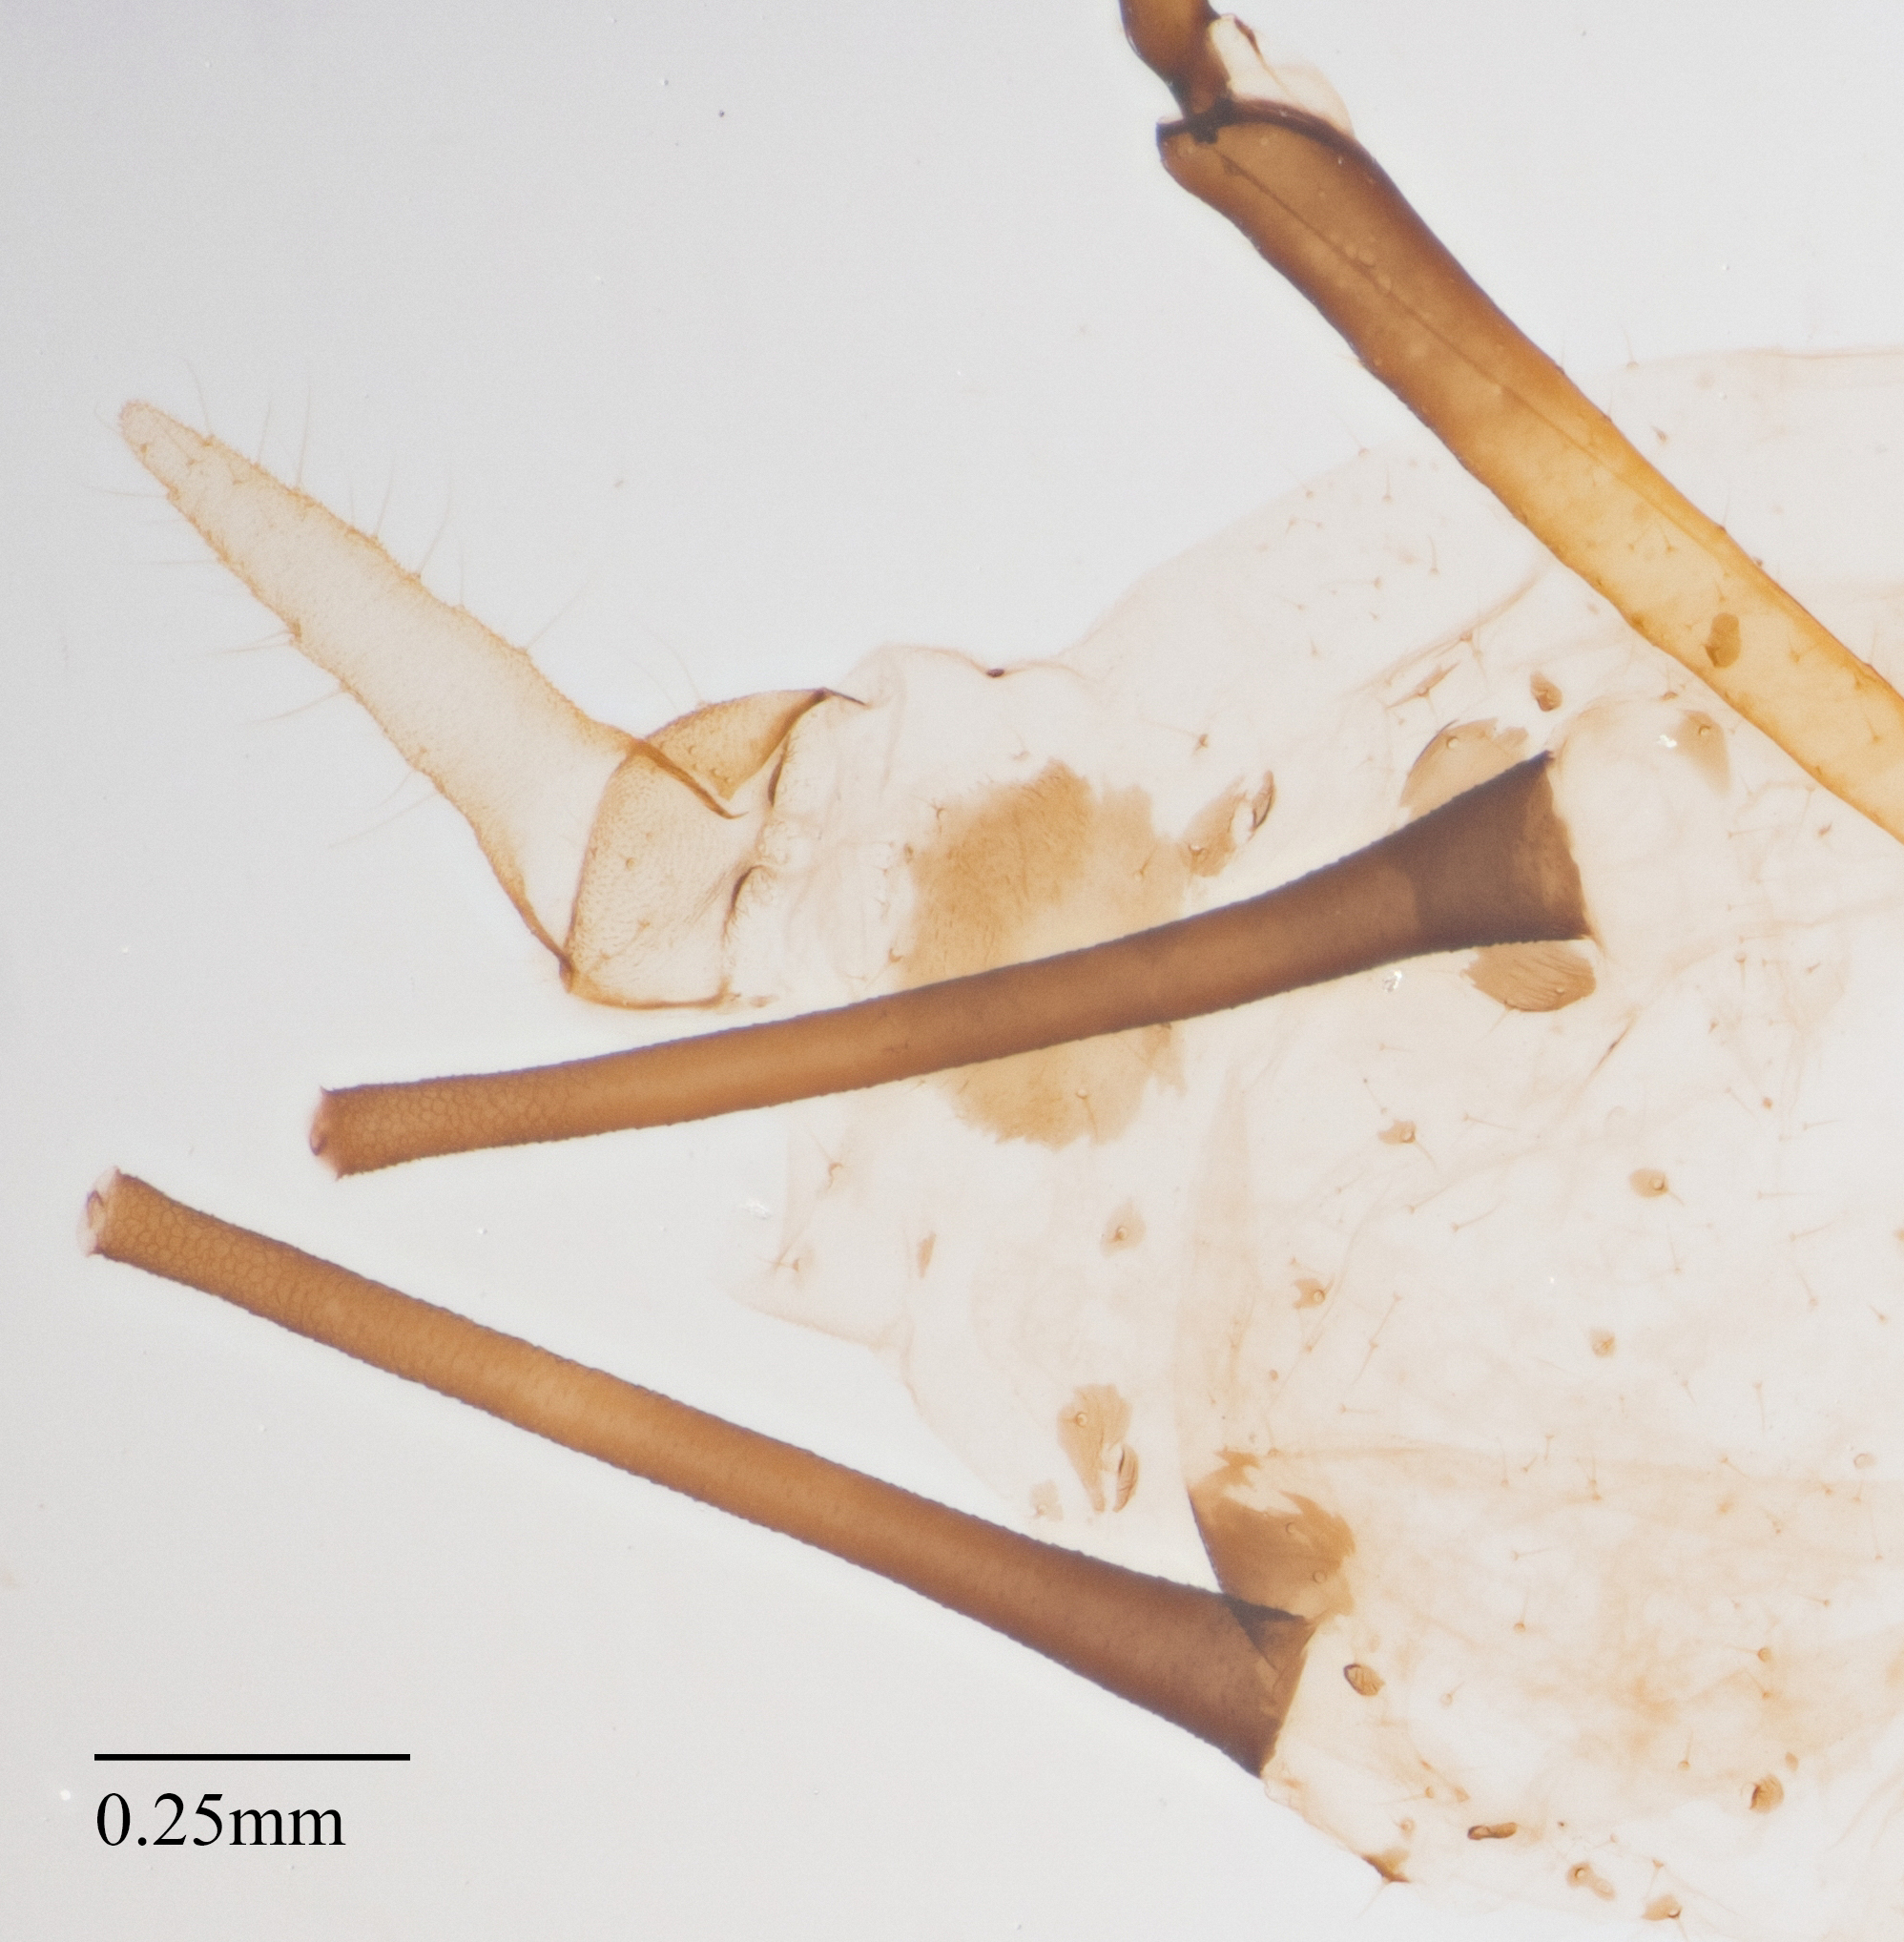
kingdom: Animalia
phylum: Arthropoda
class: Insecta
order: Hemiptera
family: Aphididae
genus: Uroleucon
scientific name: Uroleucon sonchi
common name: Large sowthistle aphid
